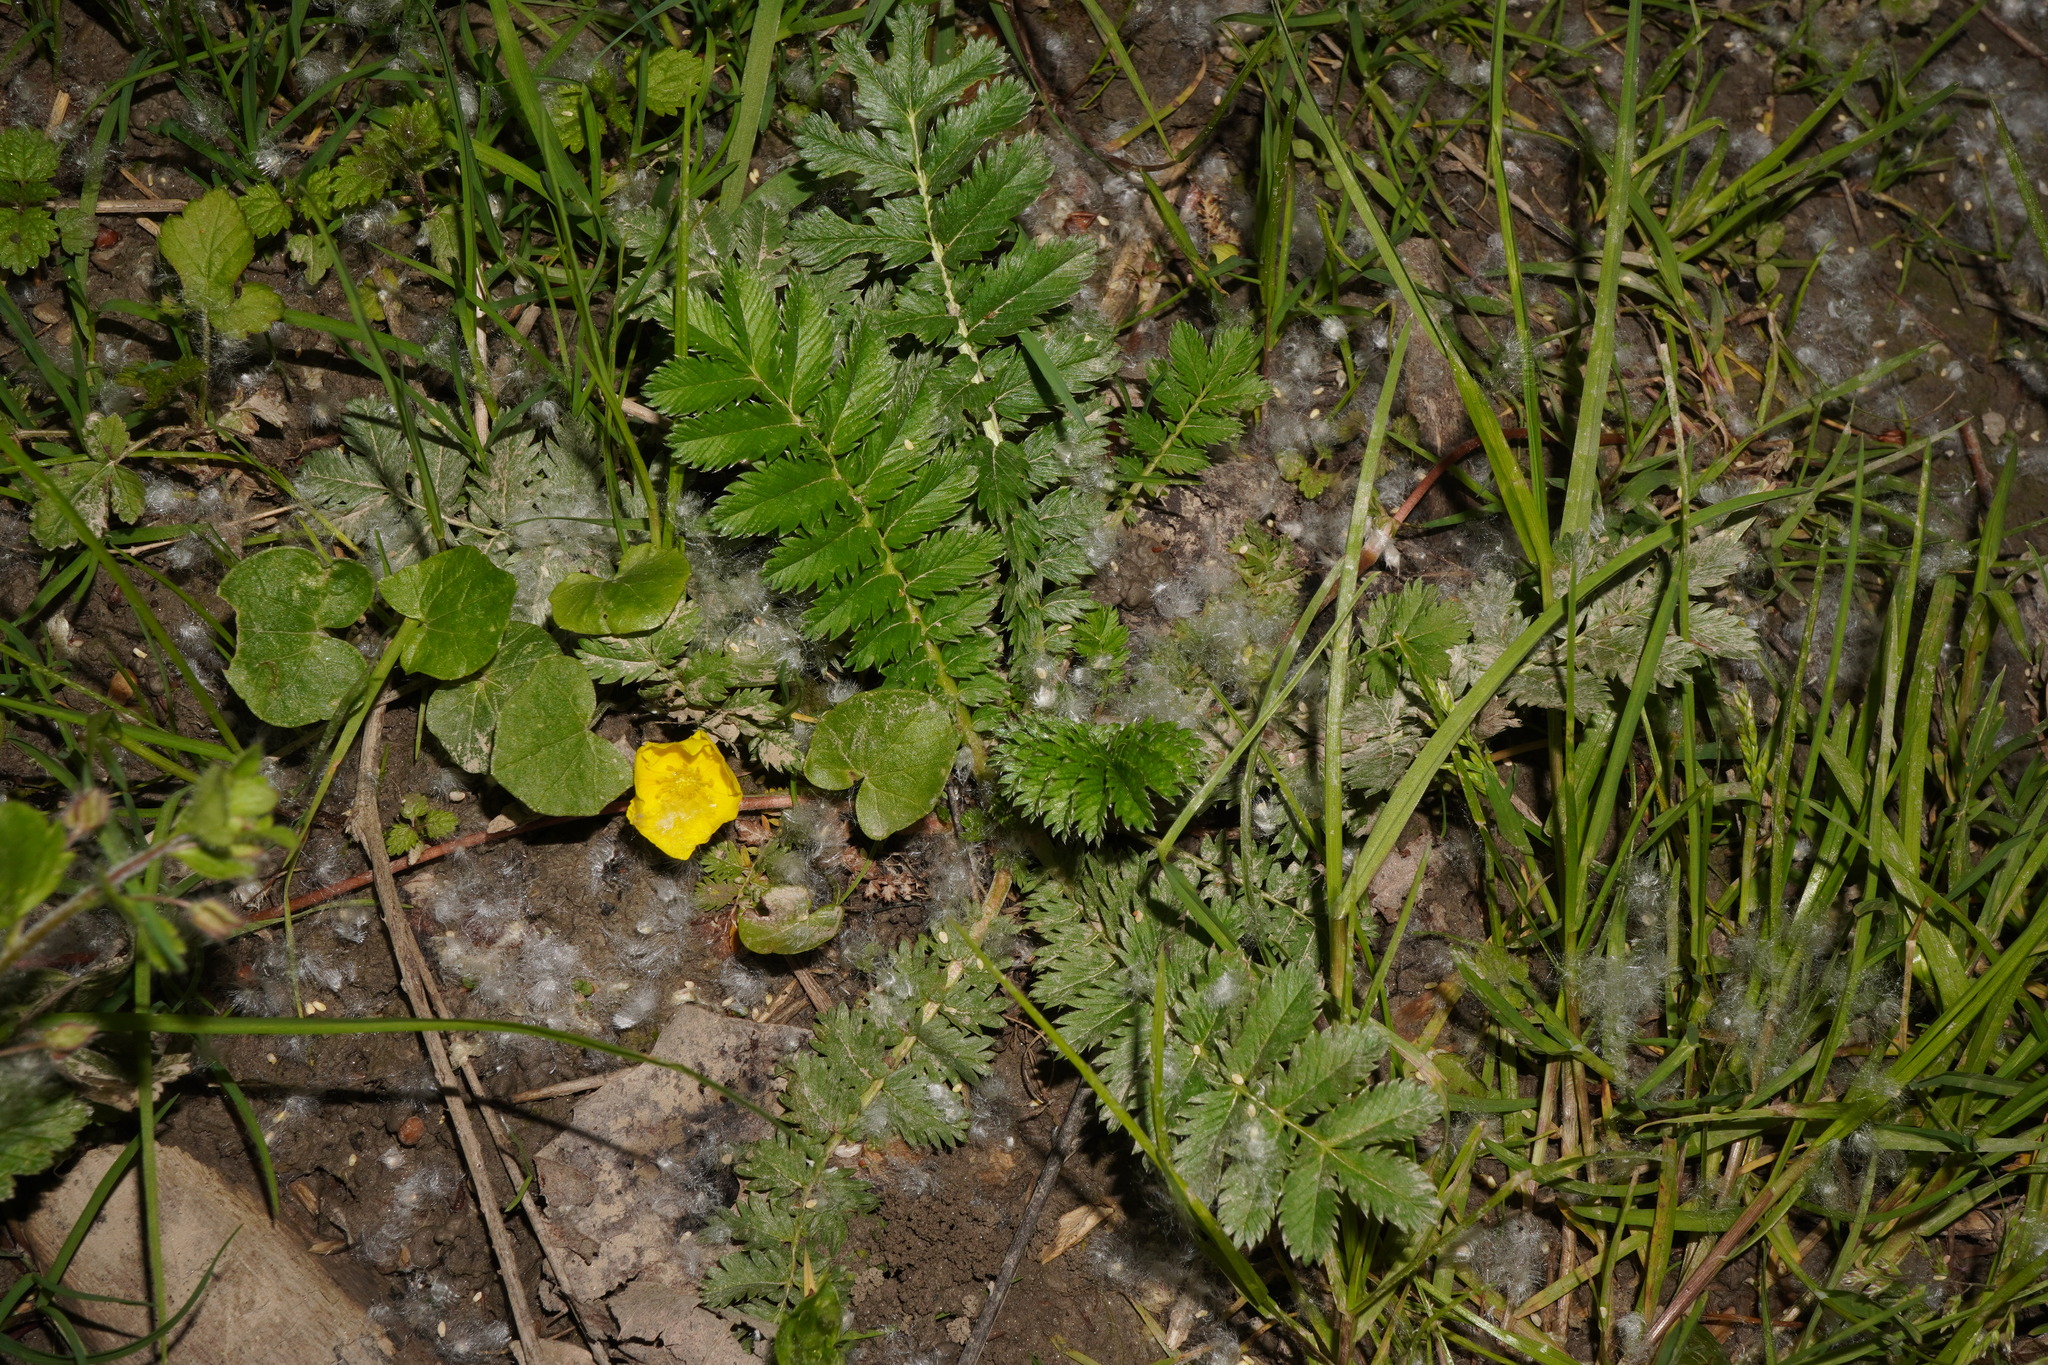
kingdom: Plantae
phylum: Tracheophyta
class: Magnoliopsida
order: Rosales
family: Rosaceae
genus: Argentina
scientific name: Argentina anserina
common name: Common silverweed
